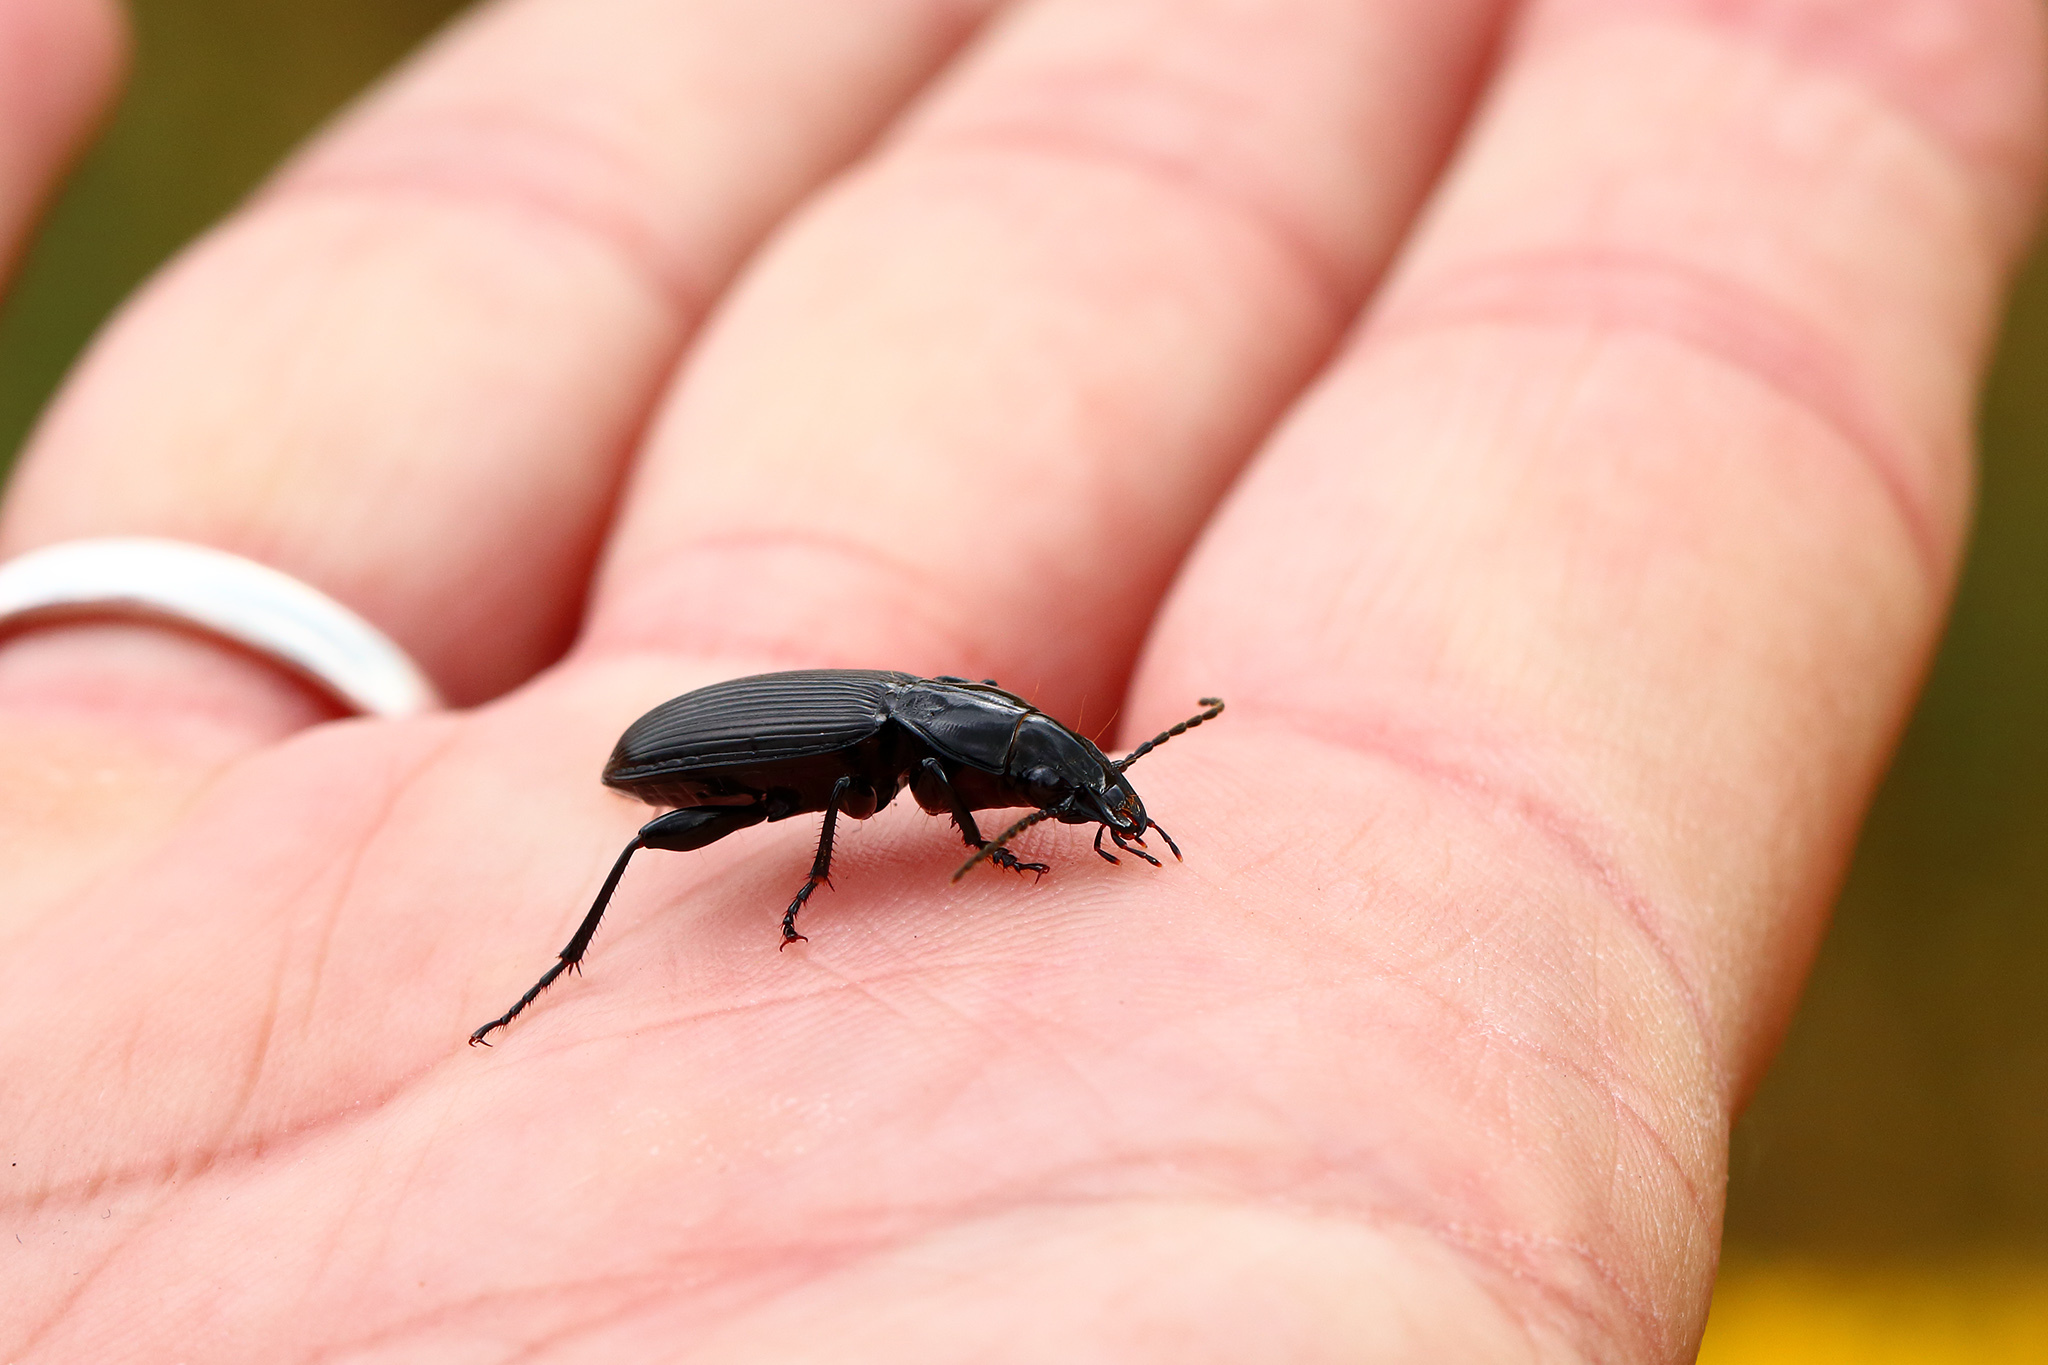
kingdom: Animalia
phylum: Arthropoda
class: Insecta
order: Coleoptera
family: Carabidae
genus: Pterostichus
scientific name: Pterostichus melanarius
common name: European dark harp ground beetle
